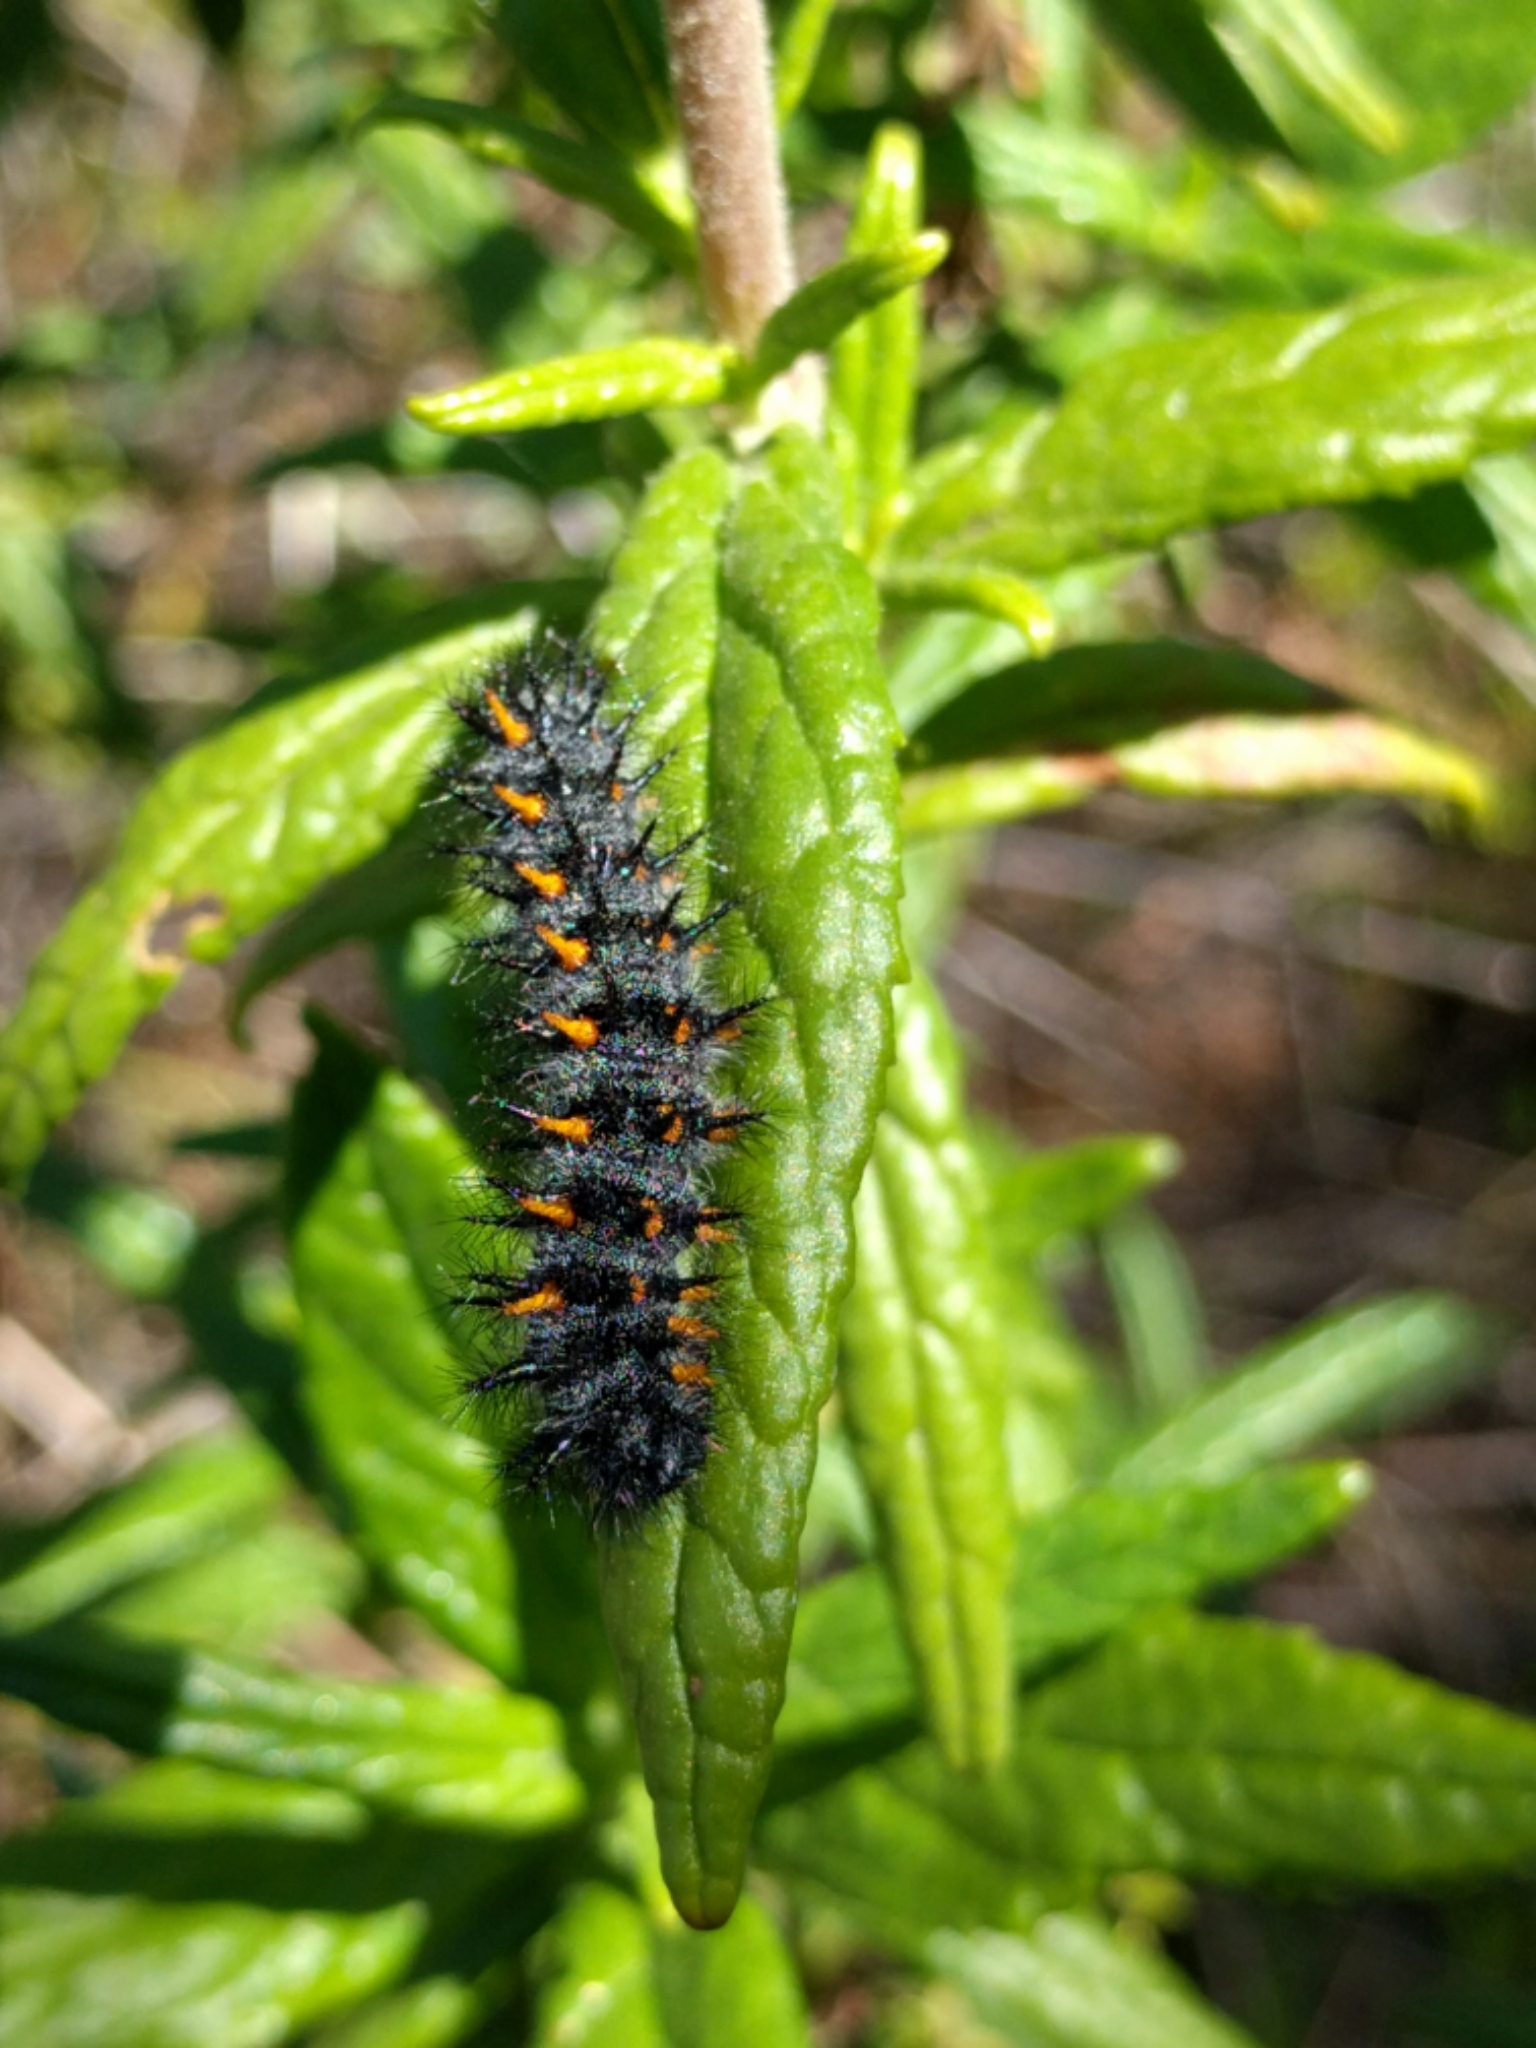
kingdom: Animalia
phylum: Arthropoda
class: Insecta
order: Lepidoptera
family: Nymphalidae
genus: Occidryas
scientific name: Occidryas chalcedona
